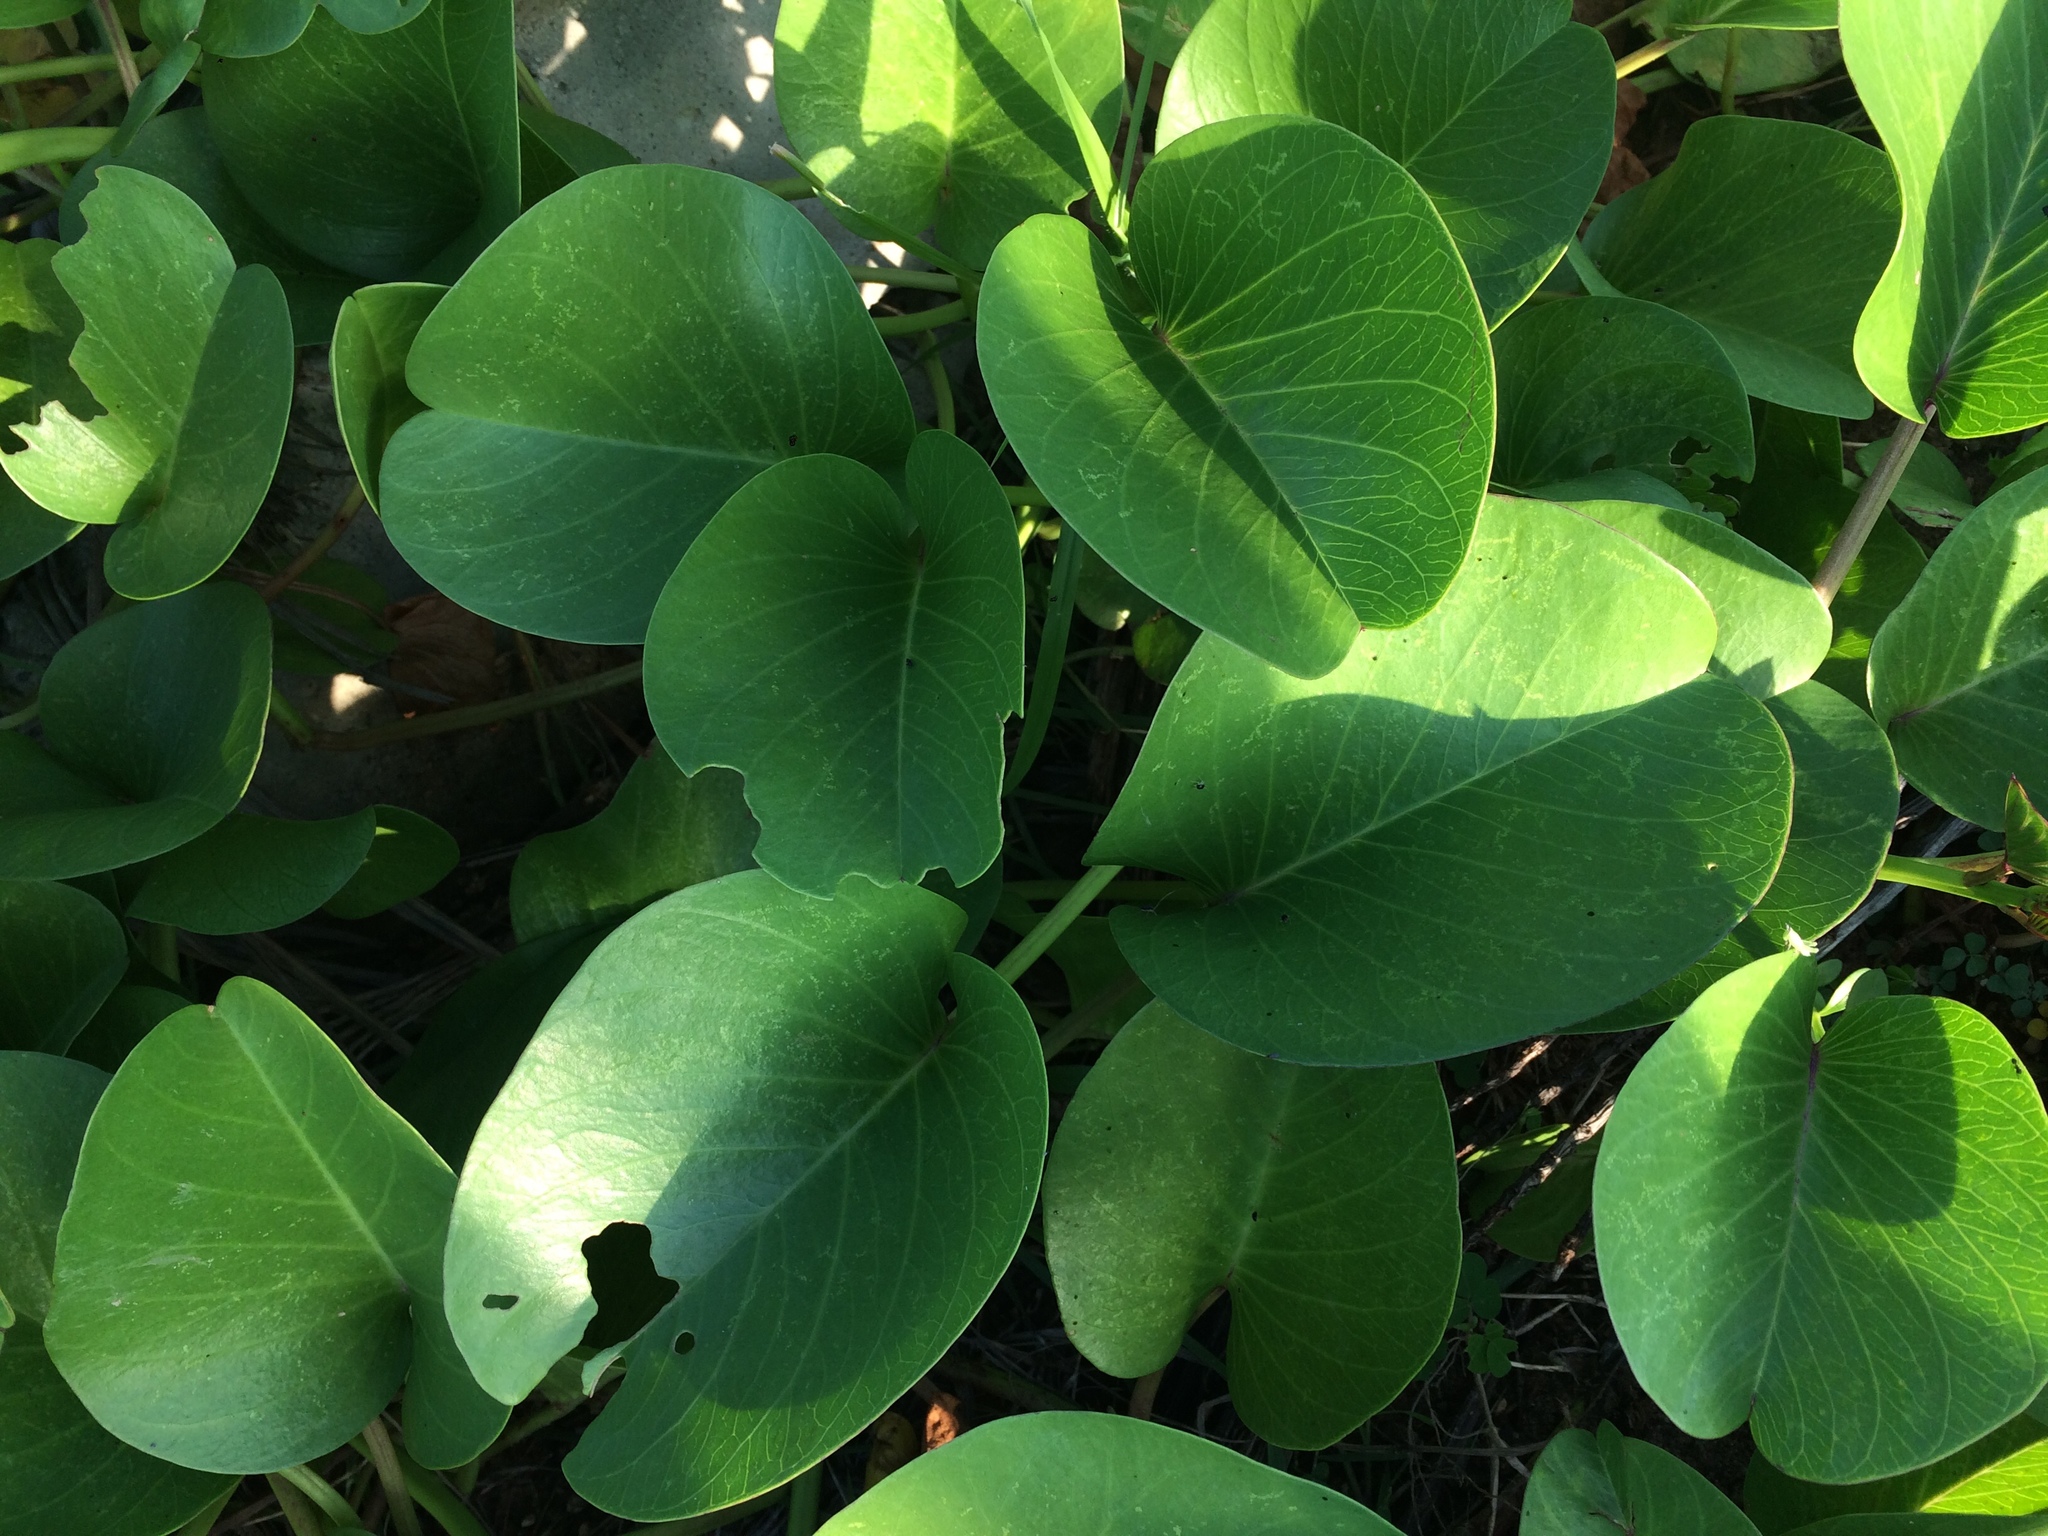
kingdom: Plantae
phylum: Tracheophyta
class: Magnoliopsida
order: Solanales
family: Convolvulaceae
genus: Ipomoea
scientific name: Ipomoea pes-caprae
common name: Beach morning glory
